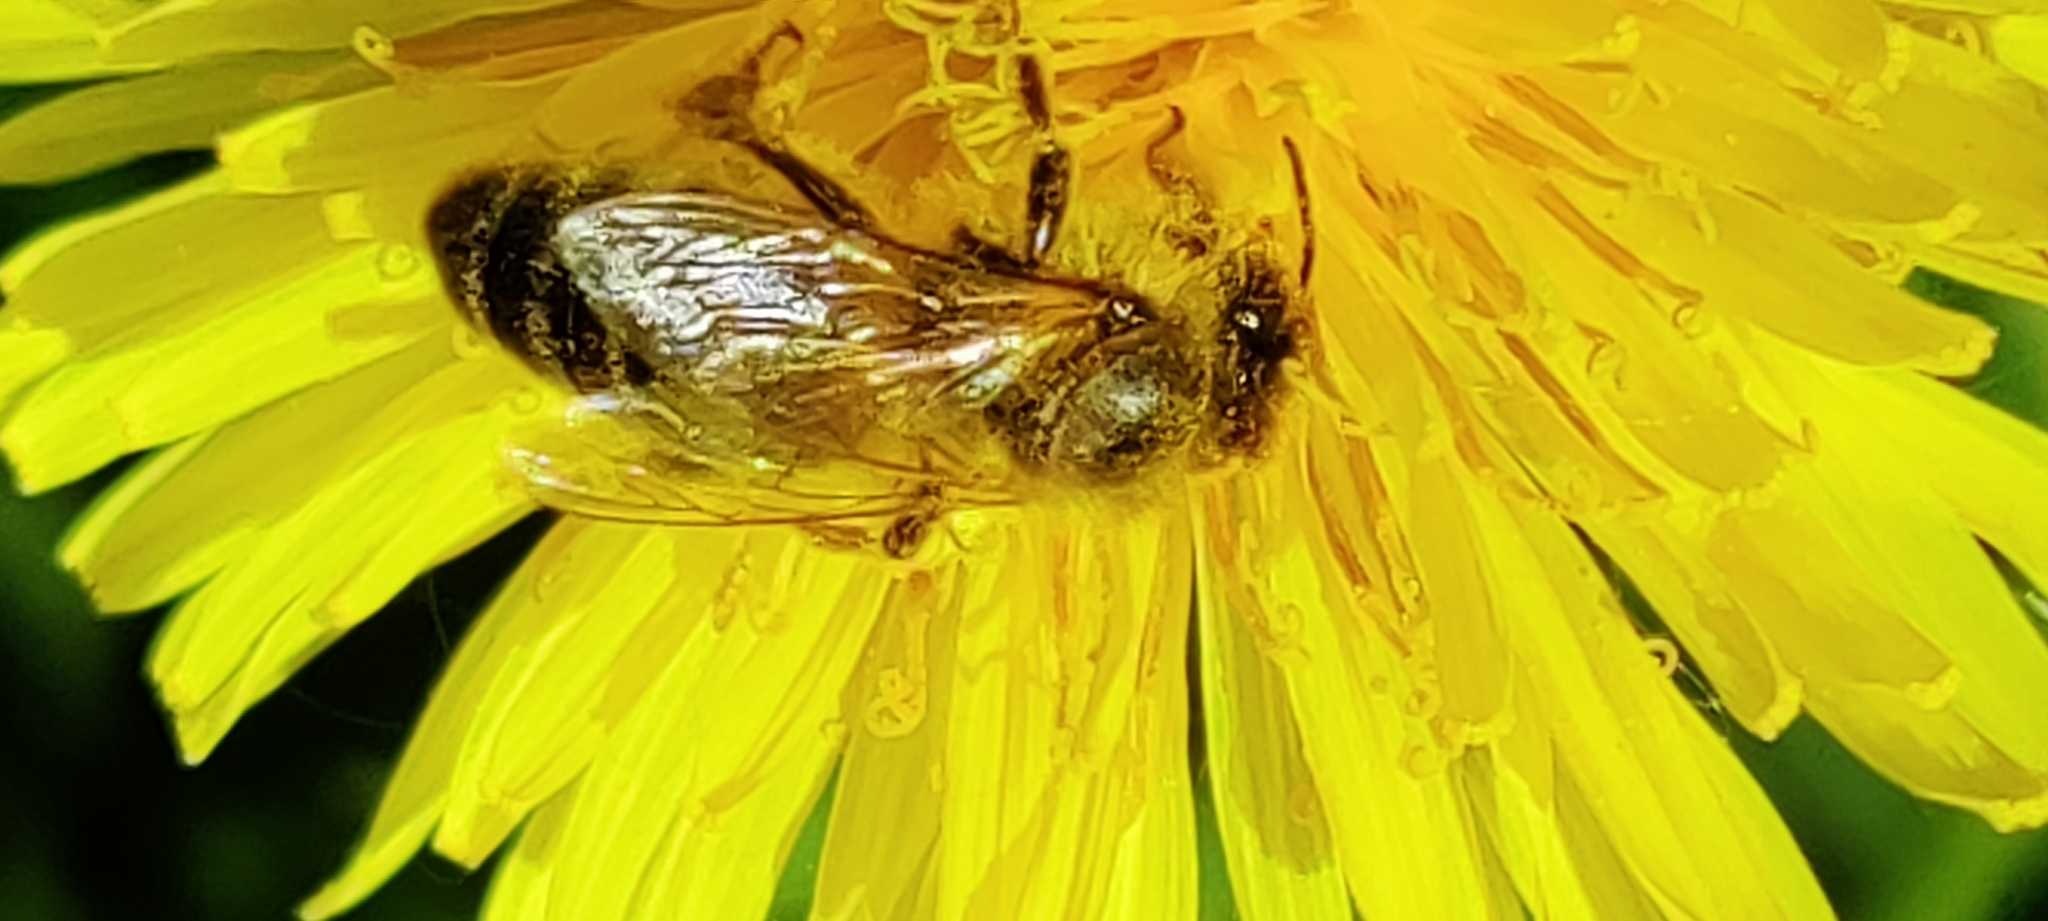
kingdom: Animalia
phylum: Arthropoda
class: Insecta
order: Hymenoptera
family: Apidae
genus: Apis
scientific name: Apis mellifera
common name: Honey bee
